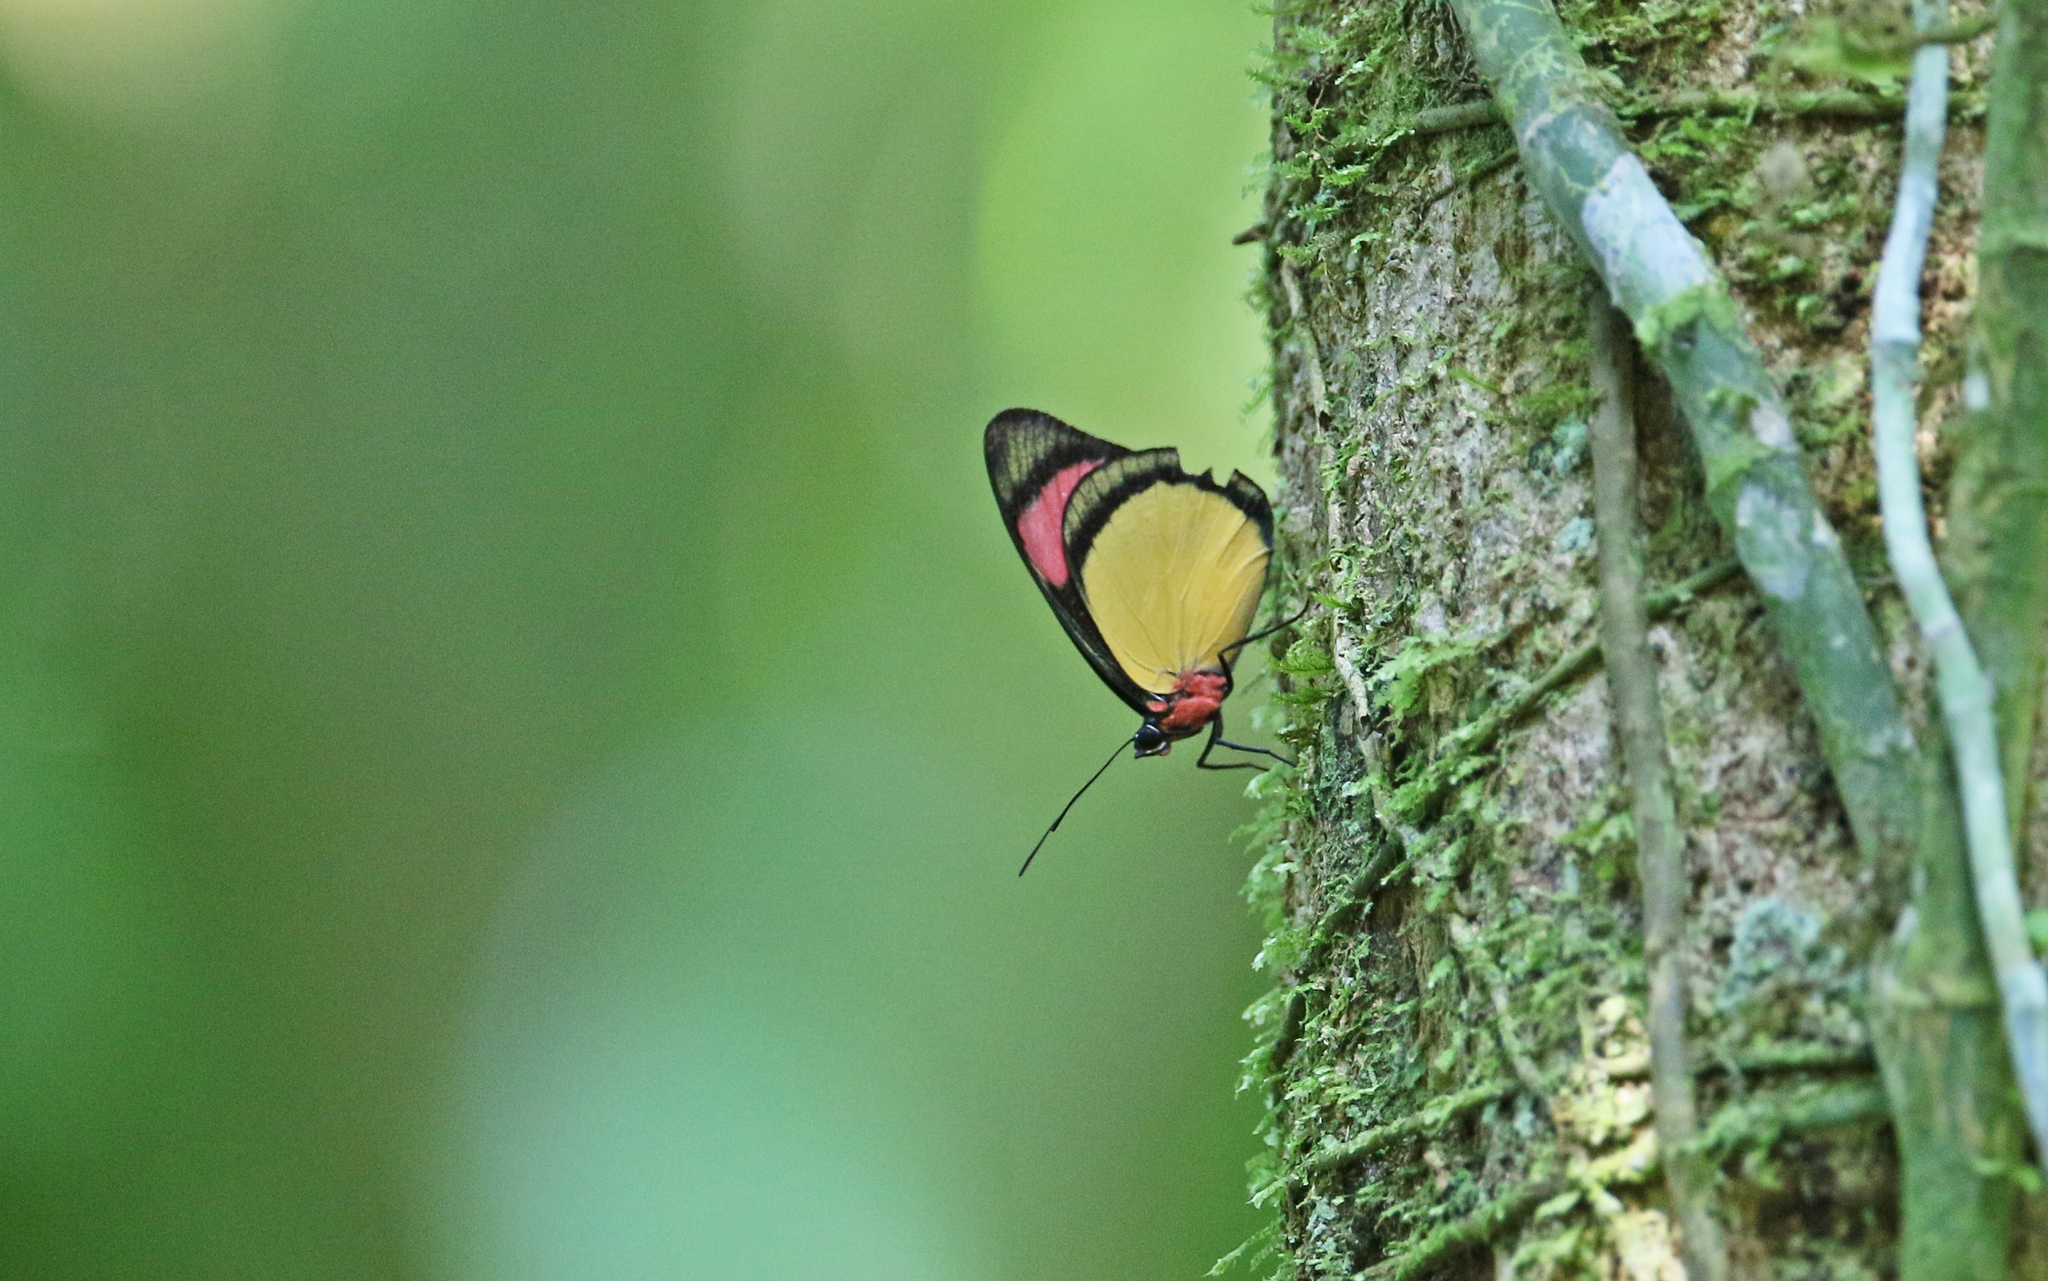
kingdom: Animalia
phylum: Arthropoda
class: Insecta
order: Lepidoptera
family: Nymphalidae
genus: Batesia
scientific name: Batesia hypochlora
